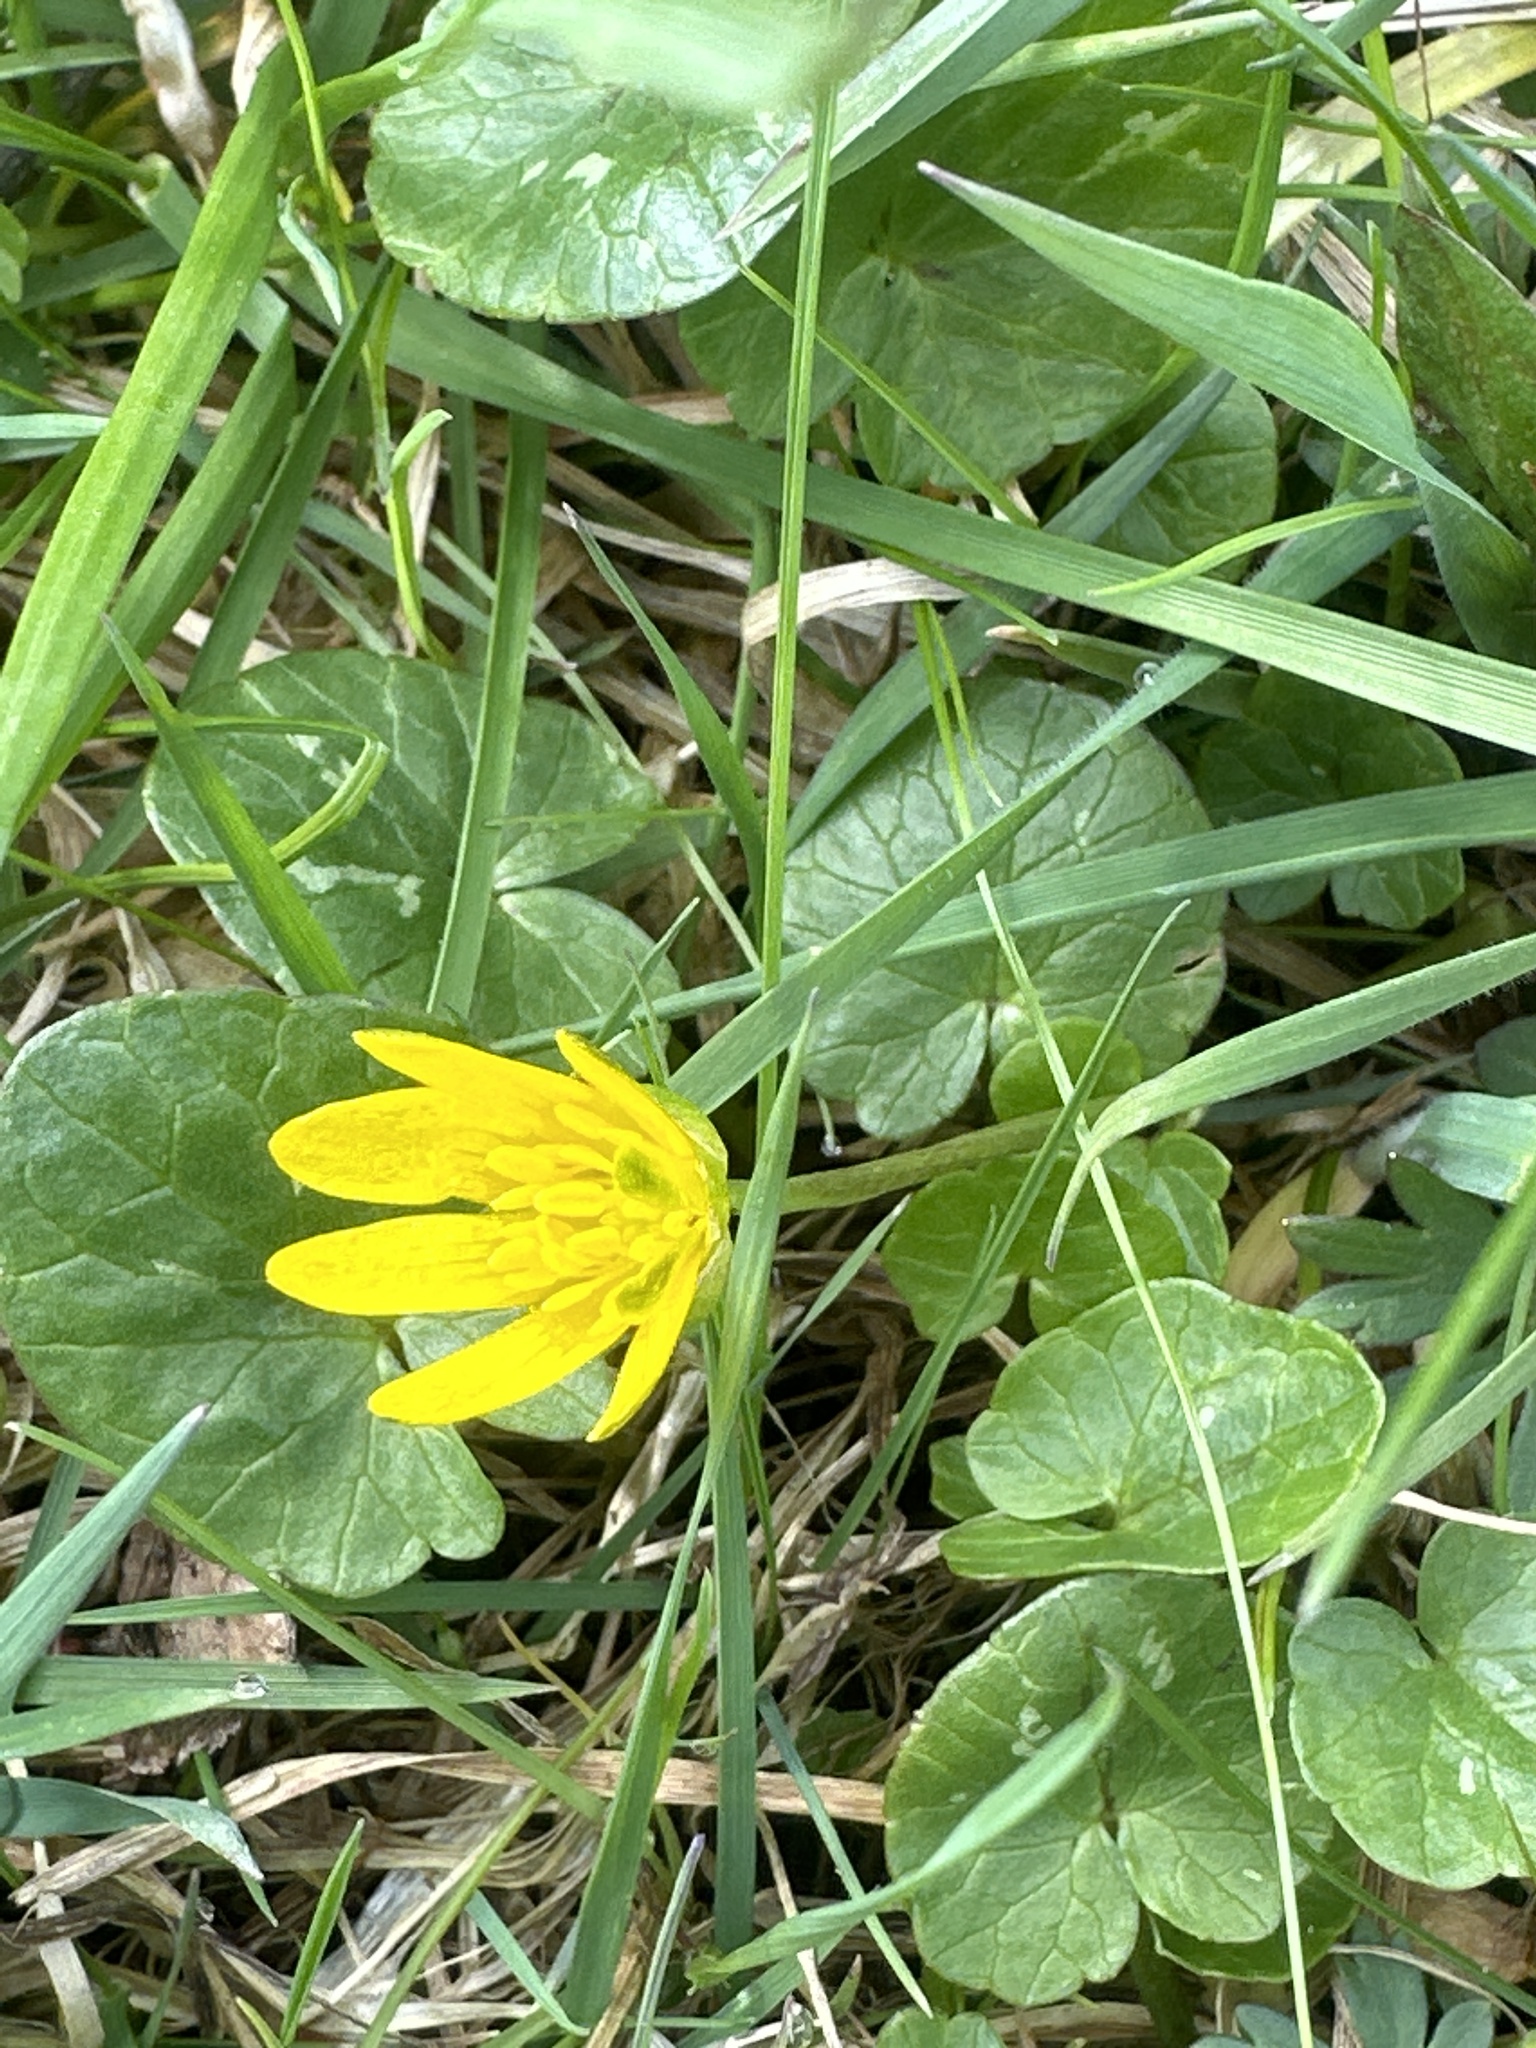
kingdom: Plantae
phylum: Tracheophyta
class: Magnoliopsida
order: Ranunculales
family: Ranunculaceae
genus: Ficaria
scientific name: Ficaria verna
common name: Lesser celandine
